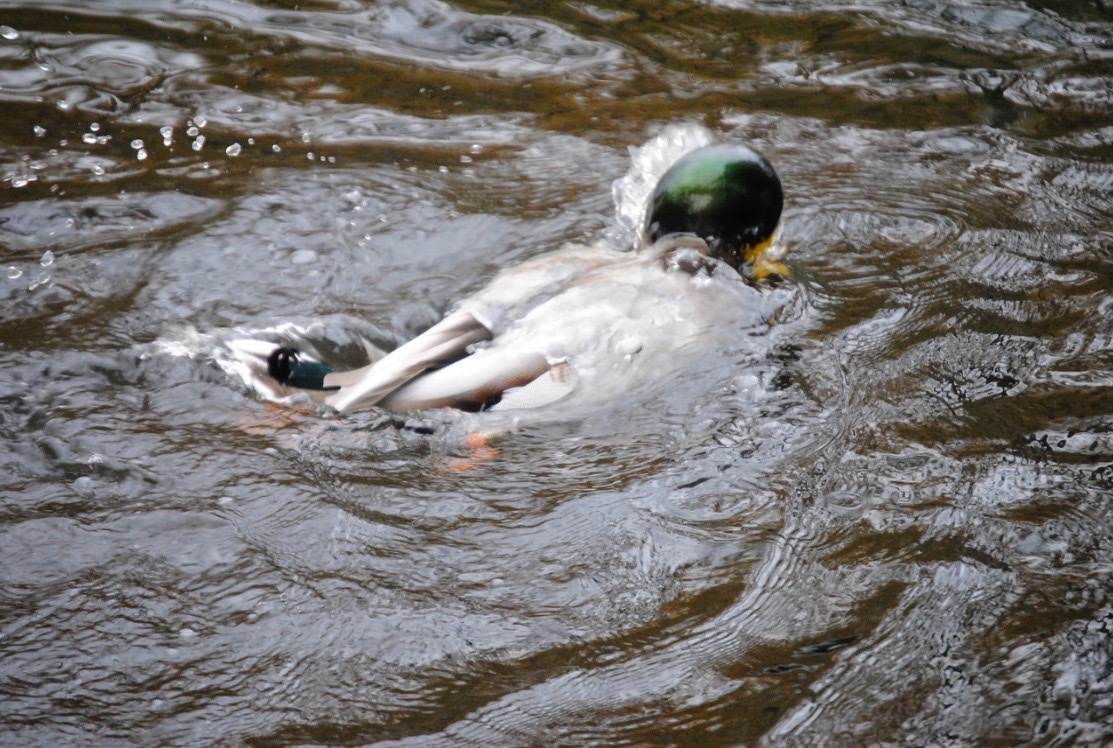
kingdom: Animalia
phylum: Chordata
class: Aves
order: Anseriformes
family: Anatidae
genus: Anas
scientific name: Anas platyrhynchos
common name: Mallard
